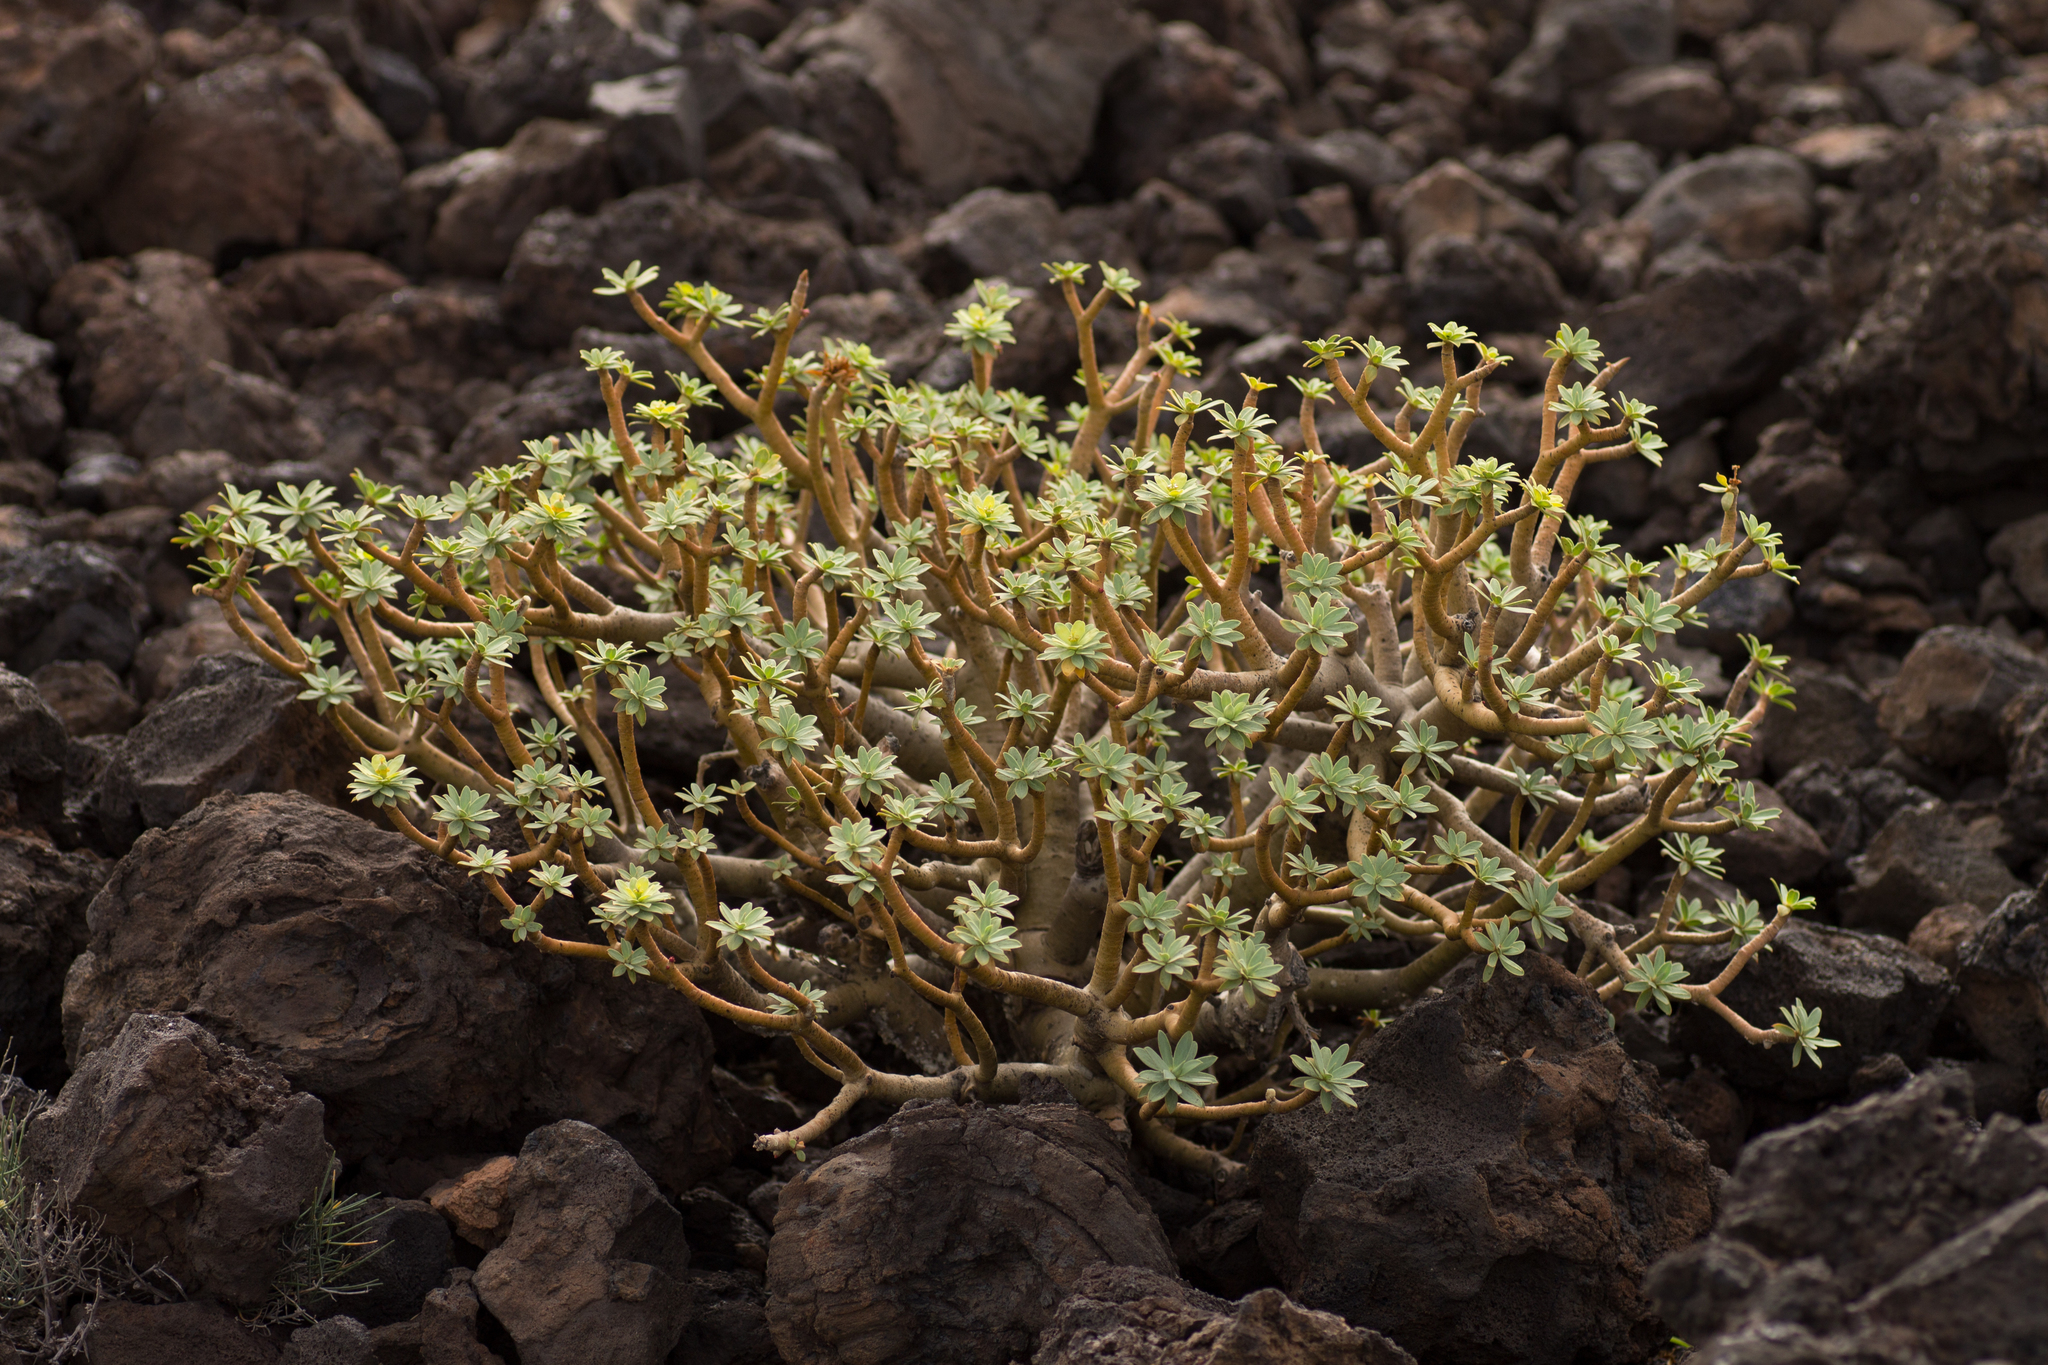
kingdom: Plantae
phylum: Tracheophyta
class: Magnoliopsida
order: Malpighiales
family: Euphorbiaceae
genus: Euphorbia
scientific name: Euphorbia balsamifera
